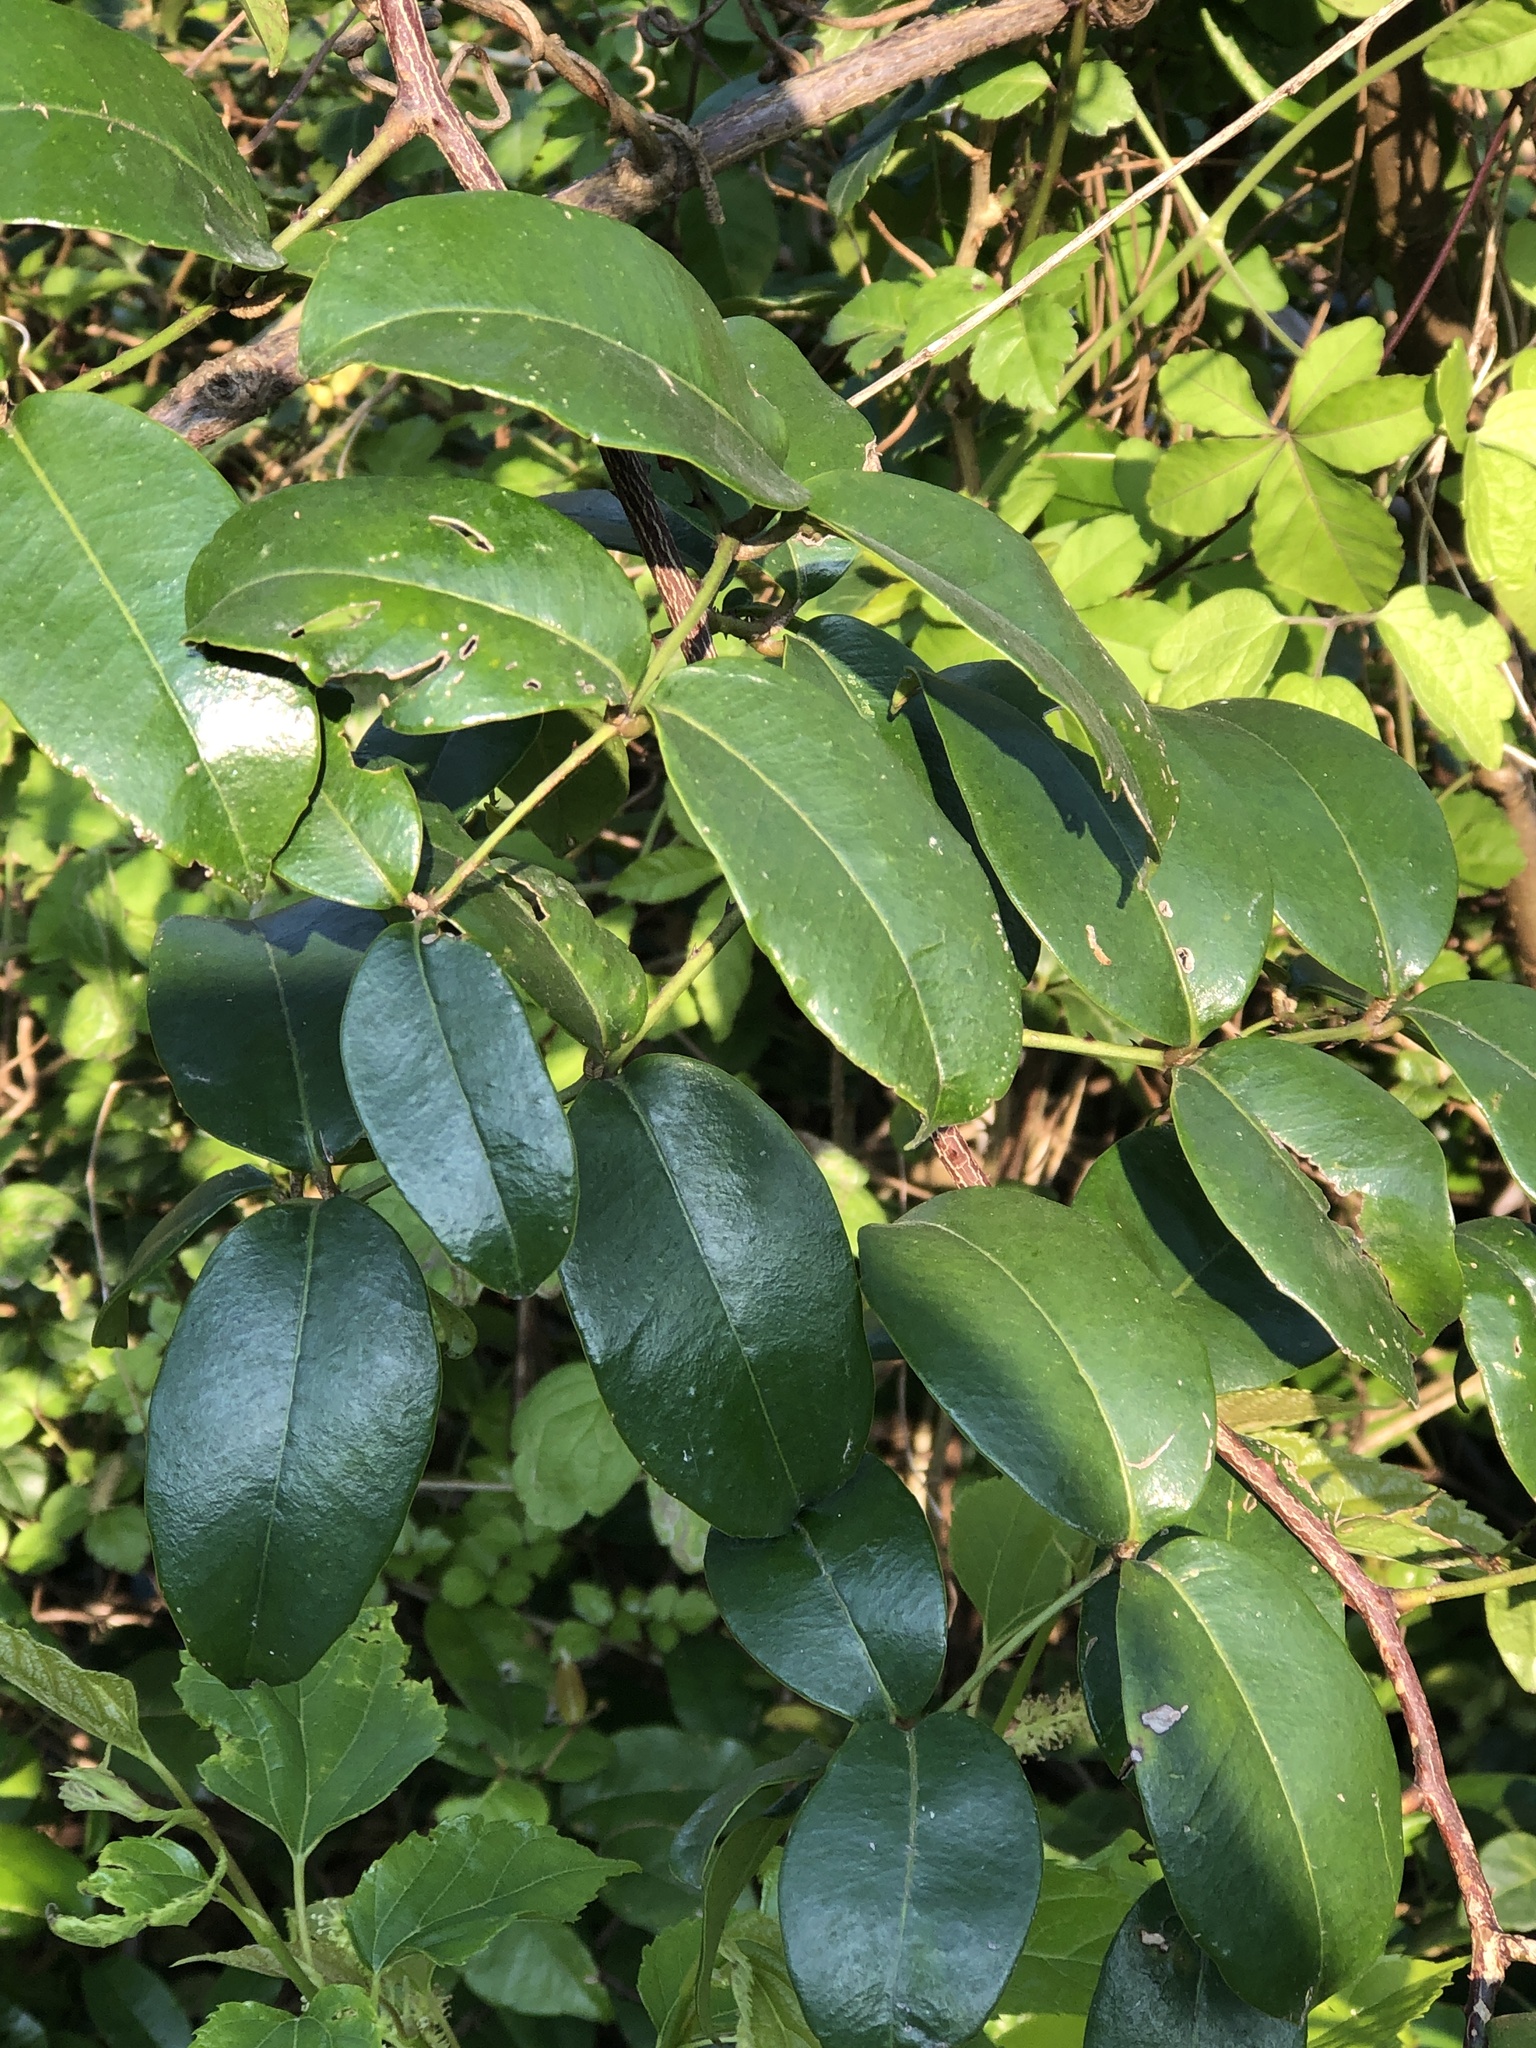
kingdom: Plantae
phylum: Tracheophyta
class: Magnoliopsida
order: Sapindales
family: Rutaceae
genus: Zanthoxylum
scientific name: Zanthoxylum nitidum
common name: Shiny-leaf prickly-ash
